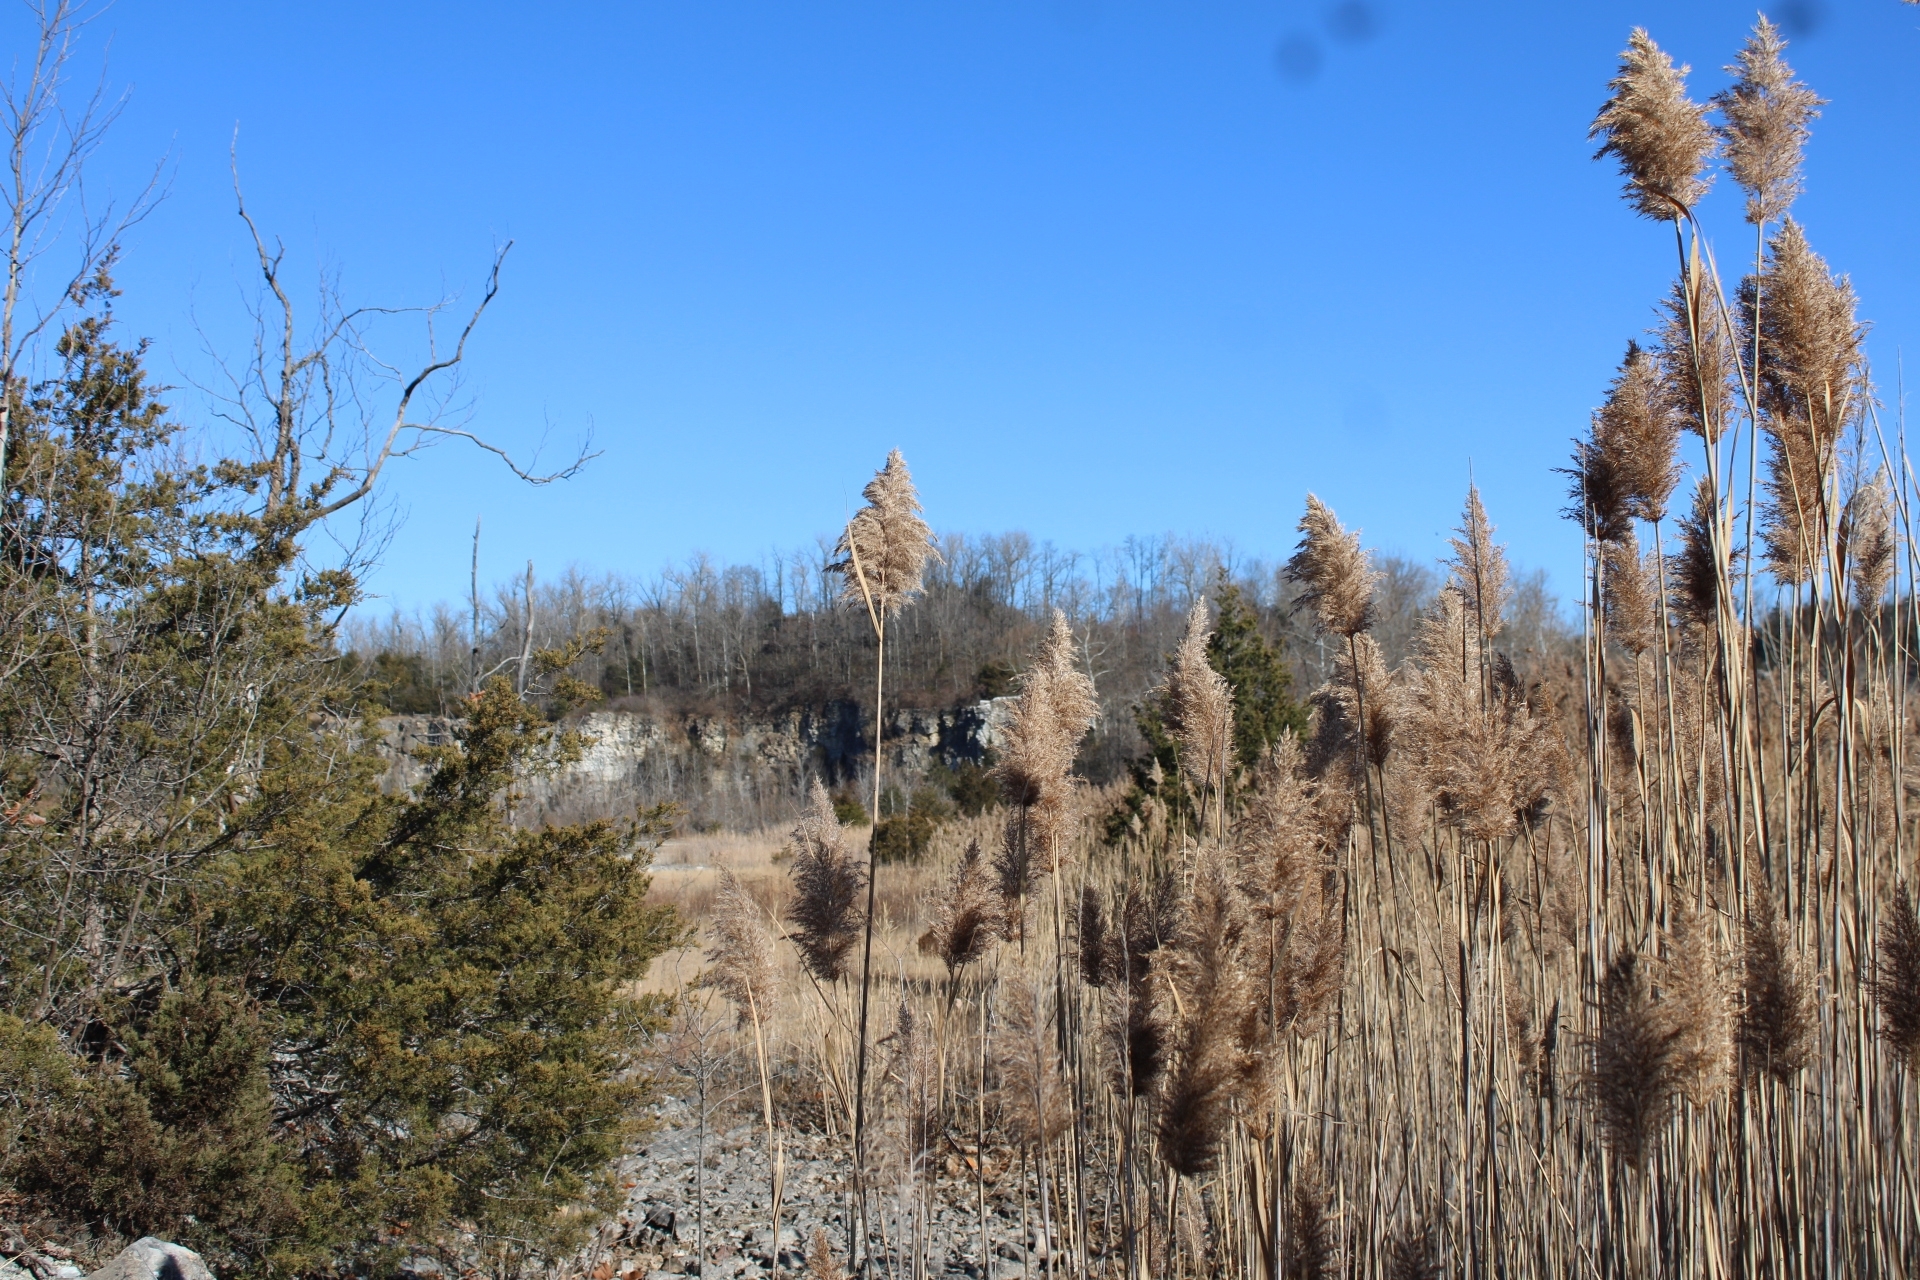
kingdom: Plantae
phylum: Tracheophyta
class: Liliopsida
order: Poales
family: Poaceae
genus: Phragmites
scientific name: Phragmites australis
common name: Common reed
